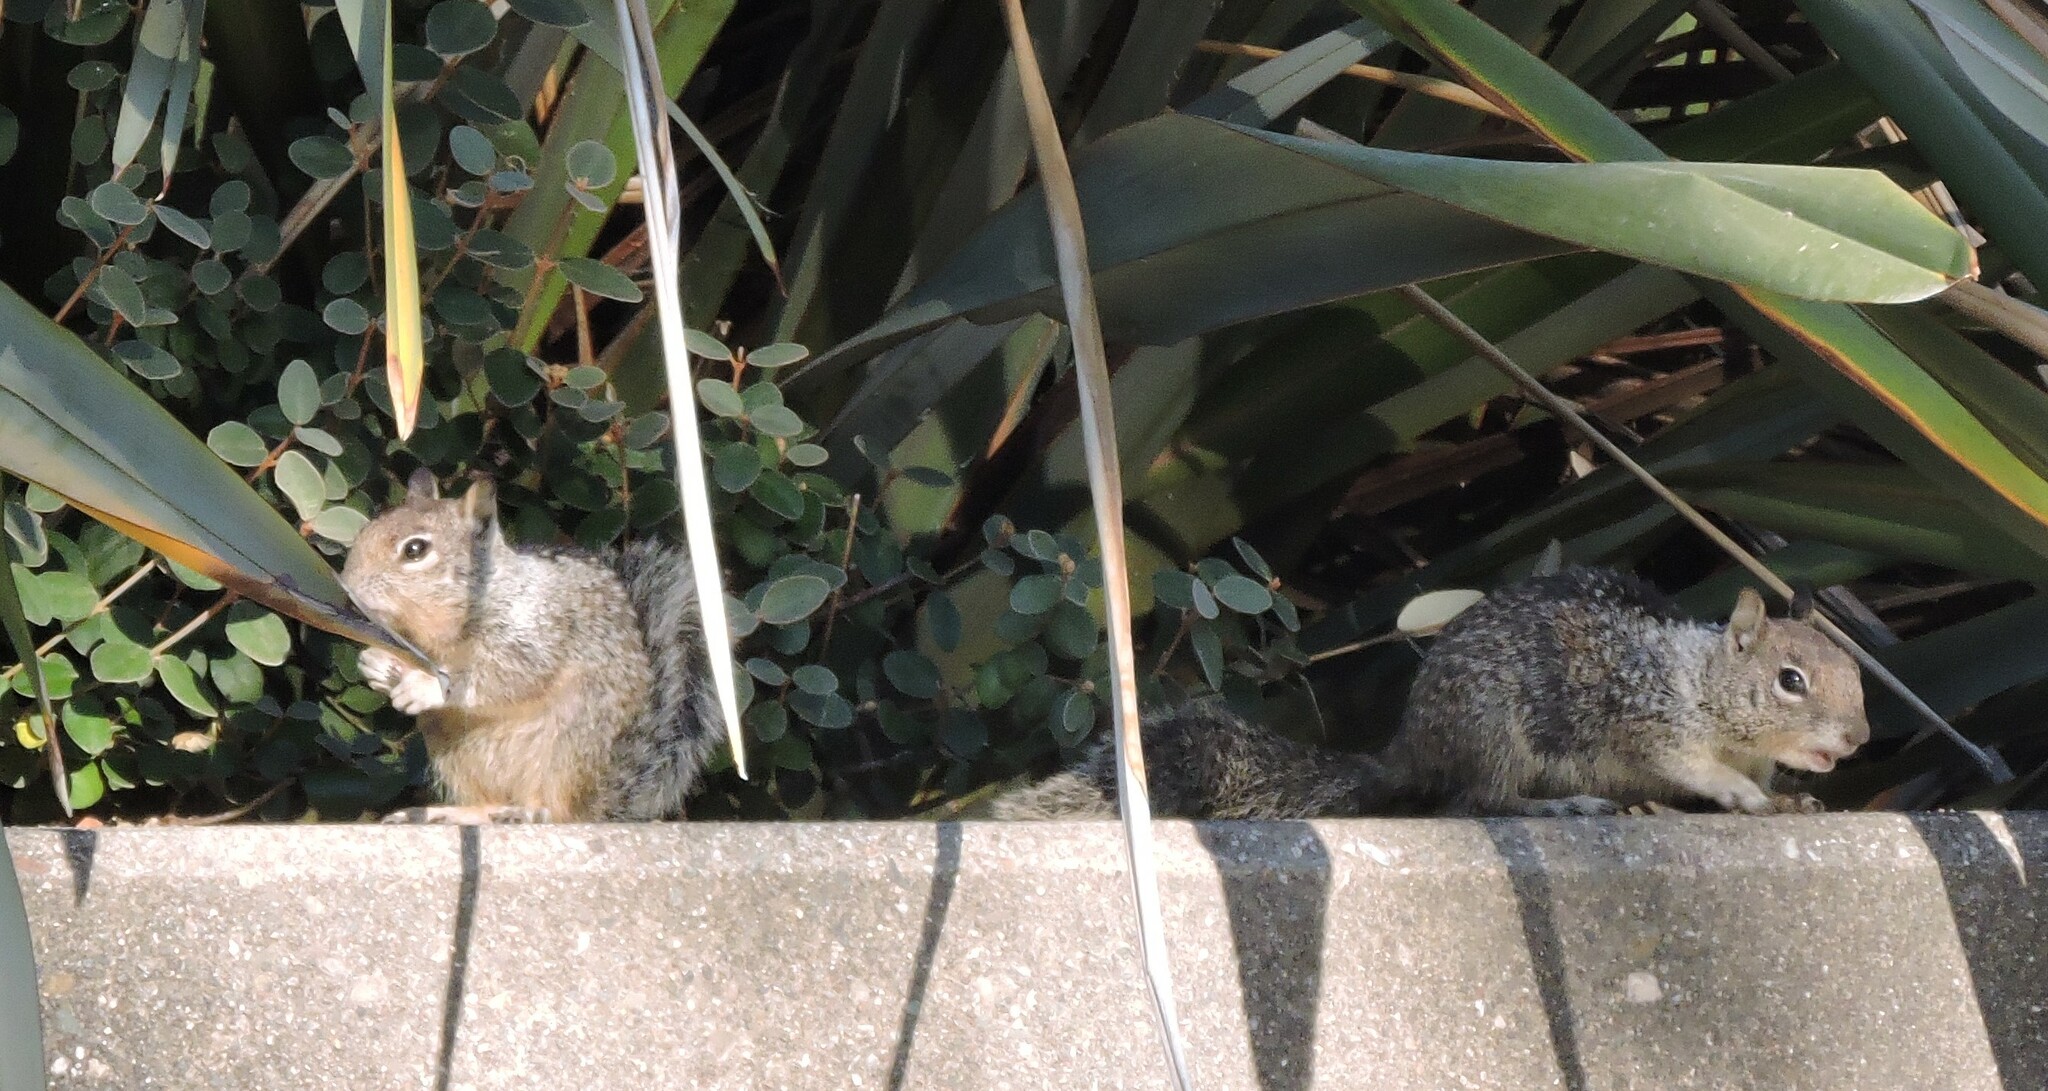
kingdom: Animalia
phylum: Chordata
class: Mammalia
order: Rodentia
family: Sciuridae
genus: Otospermophilus
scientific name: Otospermophilus beecheyi
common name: California ground squirrel
